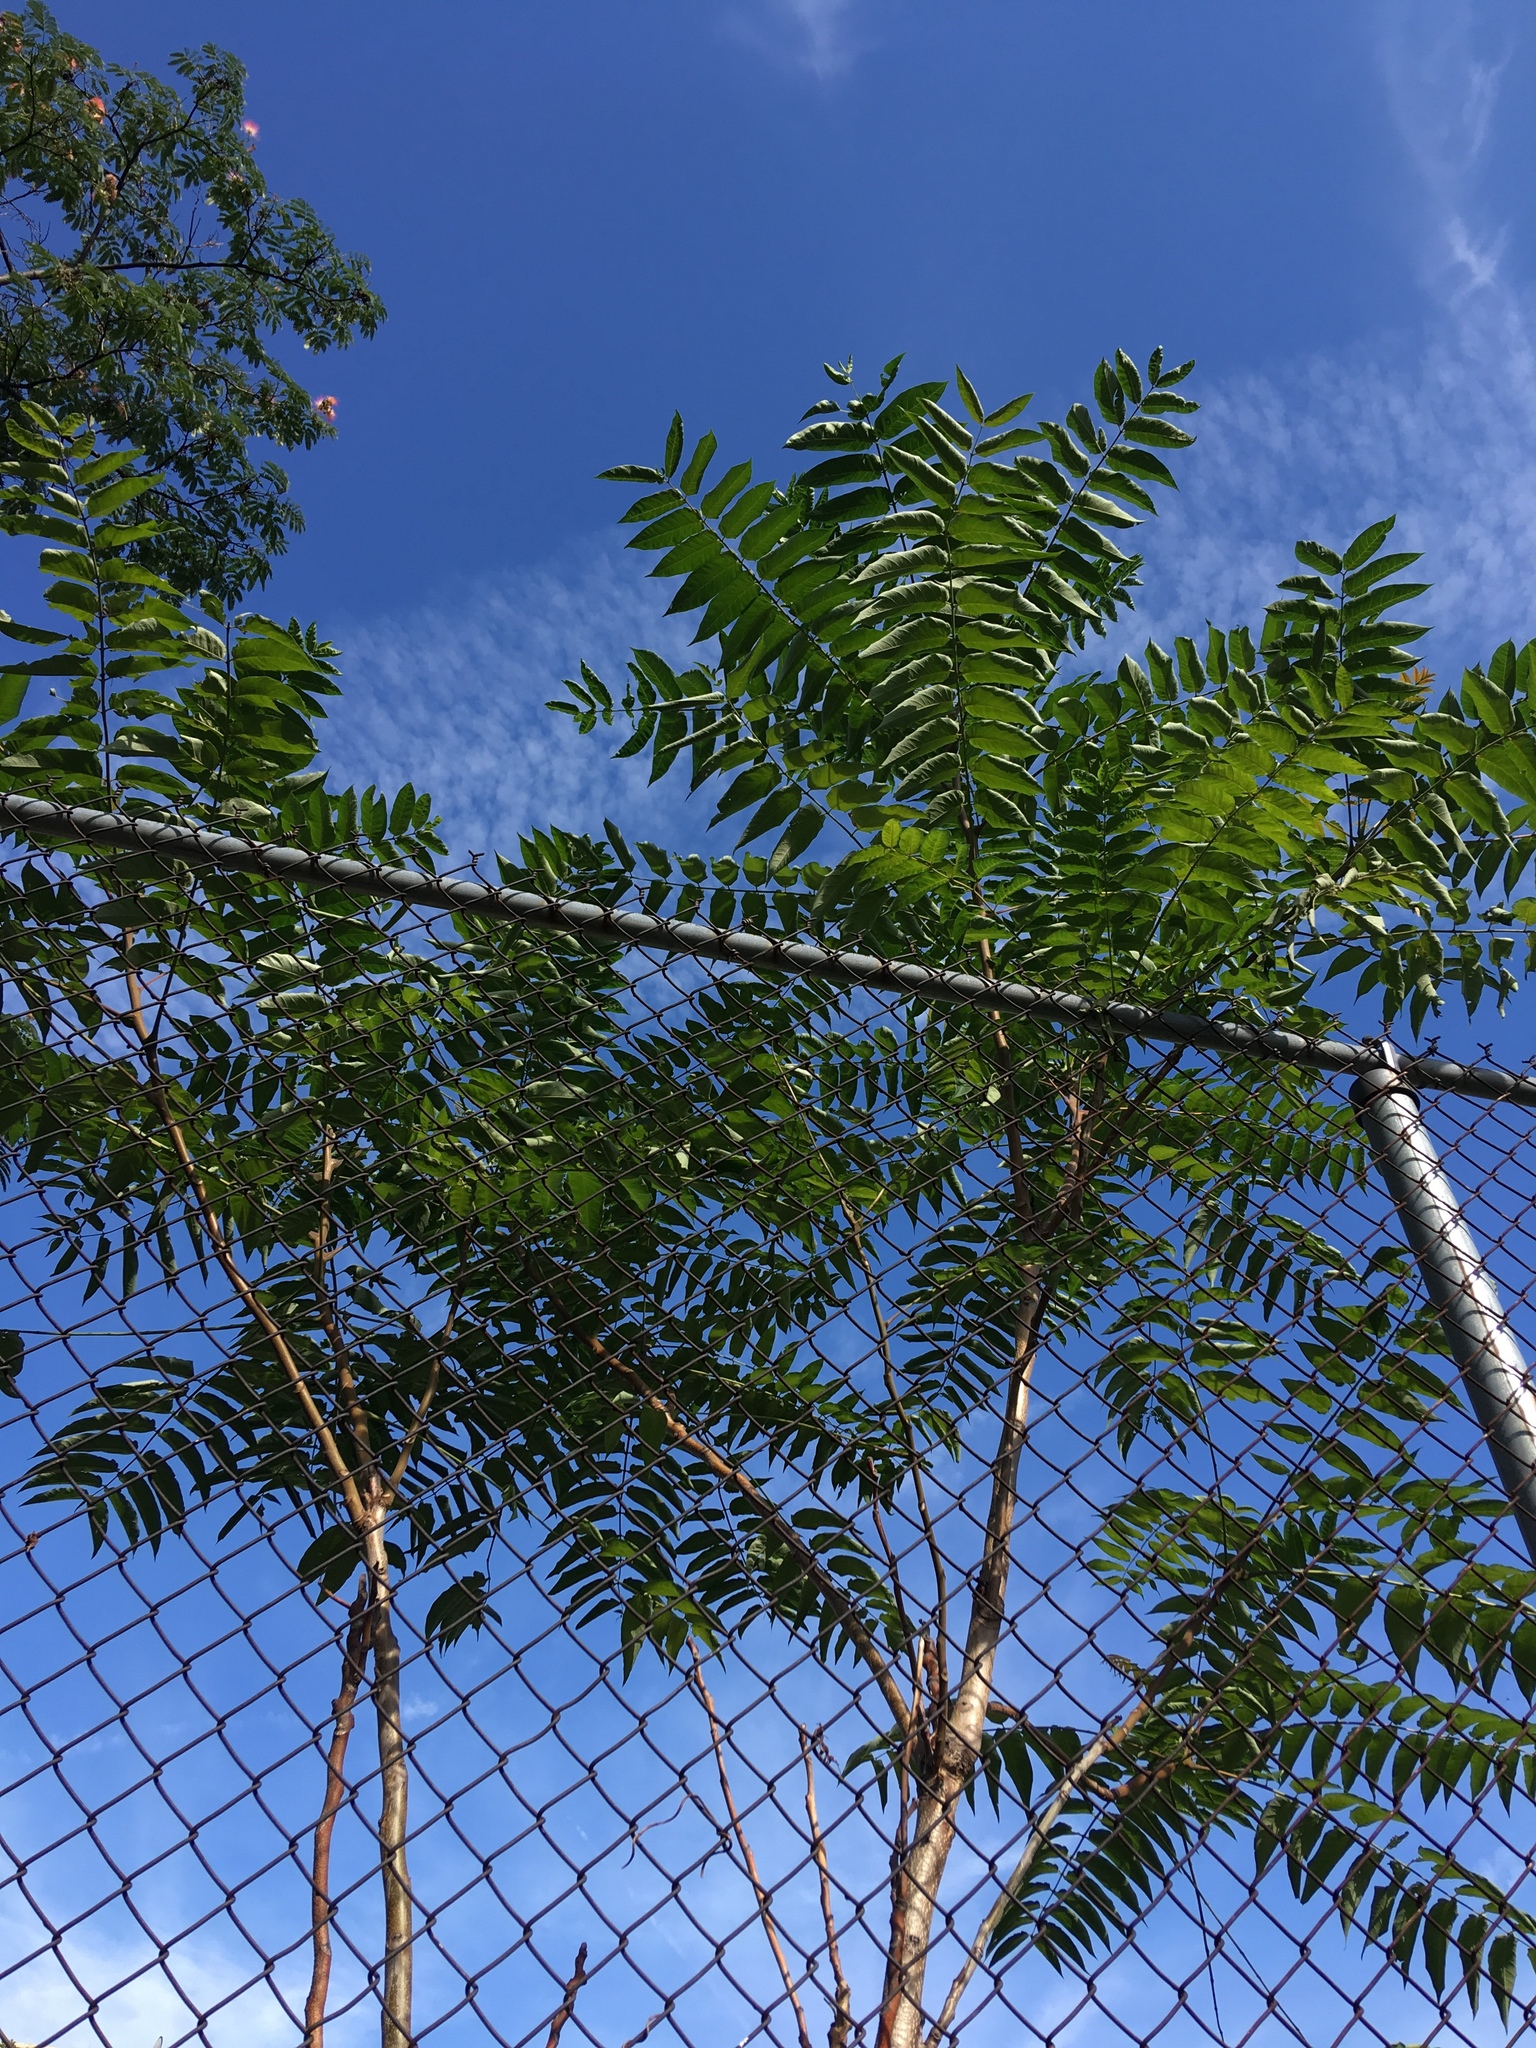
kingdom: Plantae
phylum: Tracheophyta
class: Magnoliopsida
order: Sapindales
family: Simaroubaceae
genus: Ailanthus
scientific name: Ailanthus altissima
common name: Tree-of-heaven
